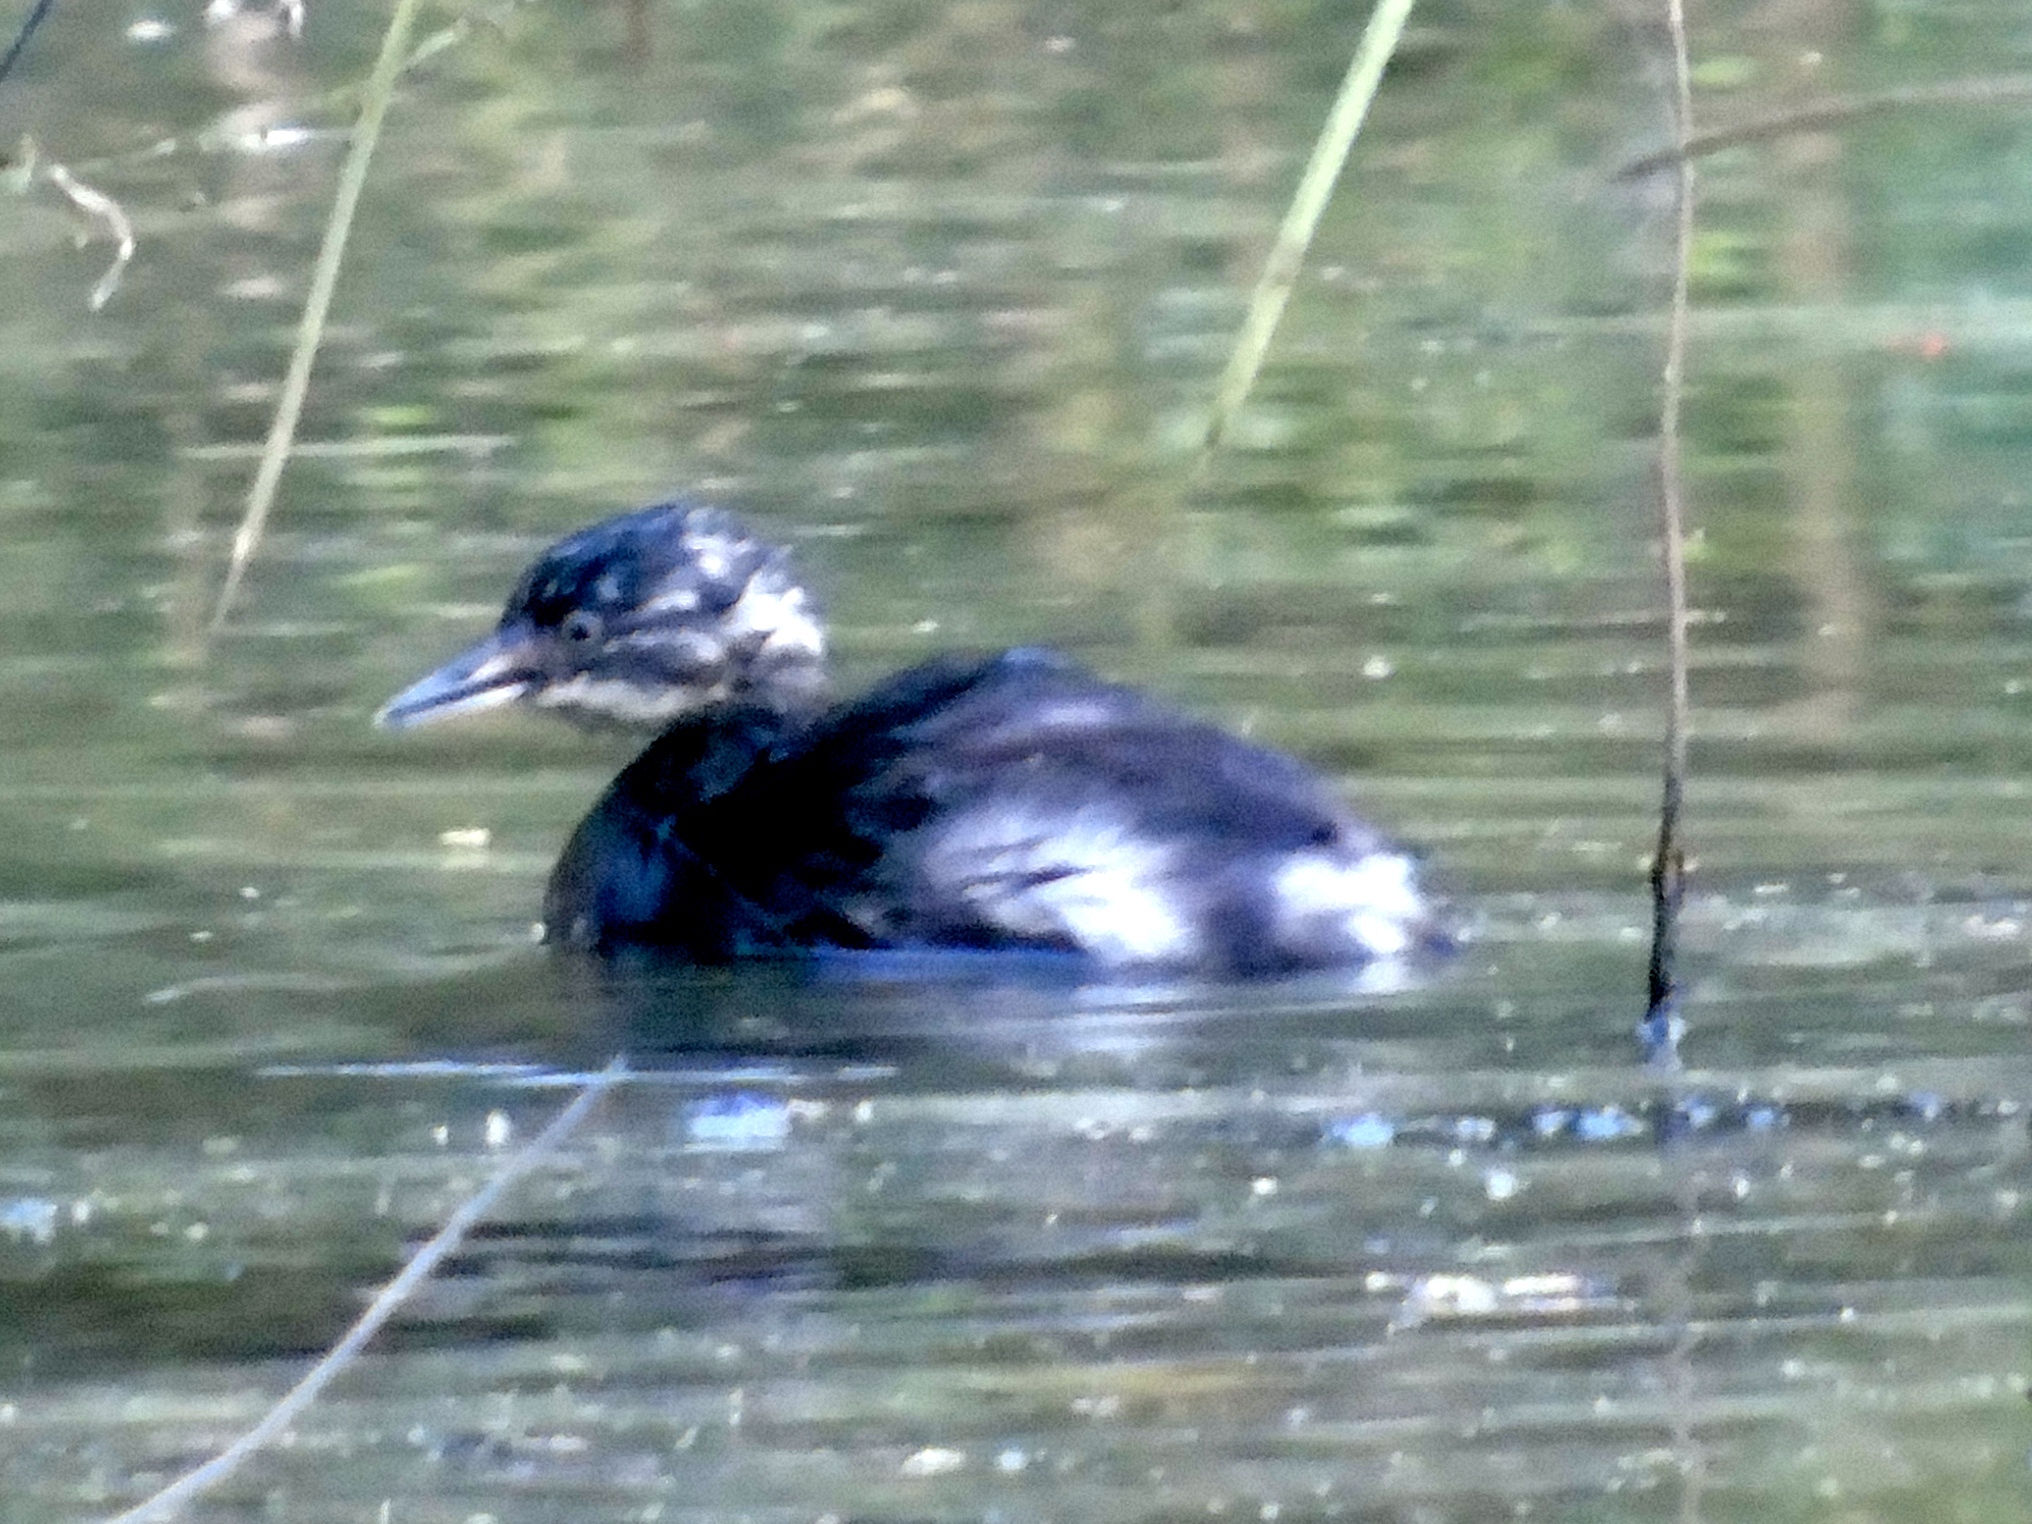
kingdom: Animalia
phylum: Chordata
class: Aves
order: Podicipediformes
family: Podicipedidae
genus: Tachybaptus
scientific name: Tachybaptus dominicus
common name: Least grebe
